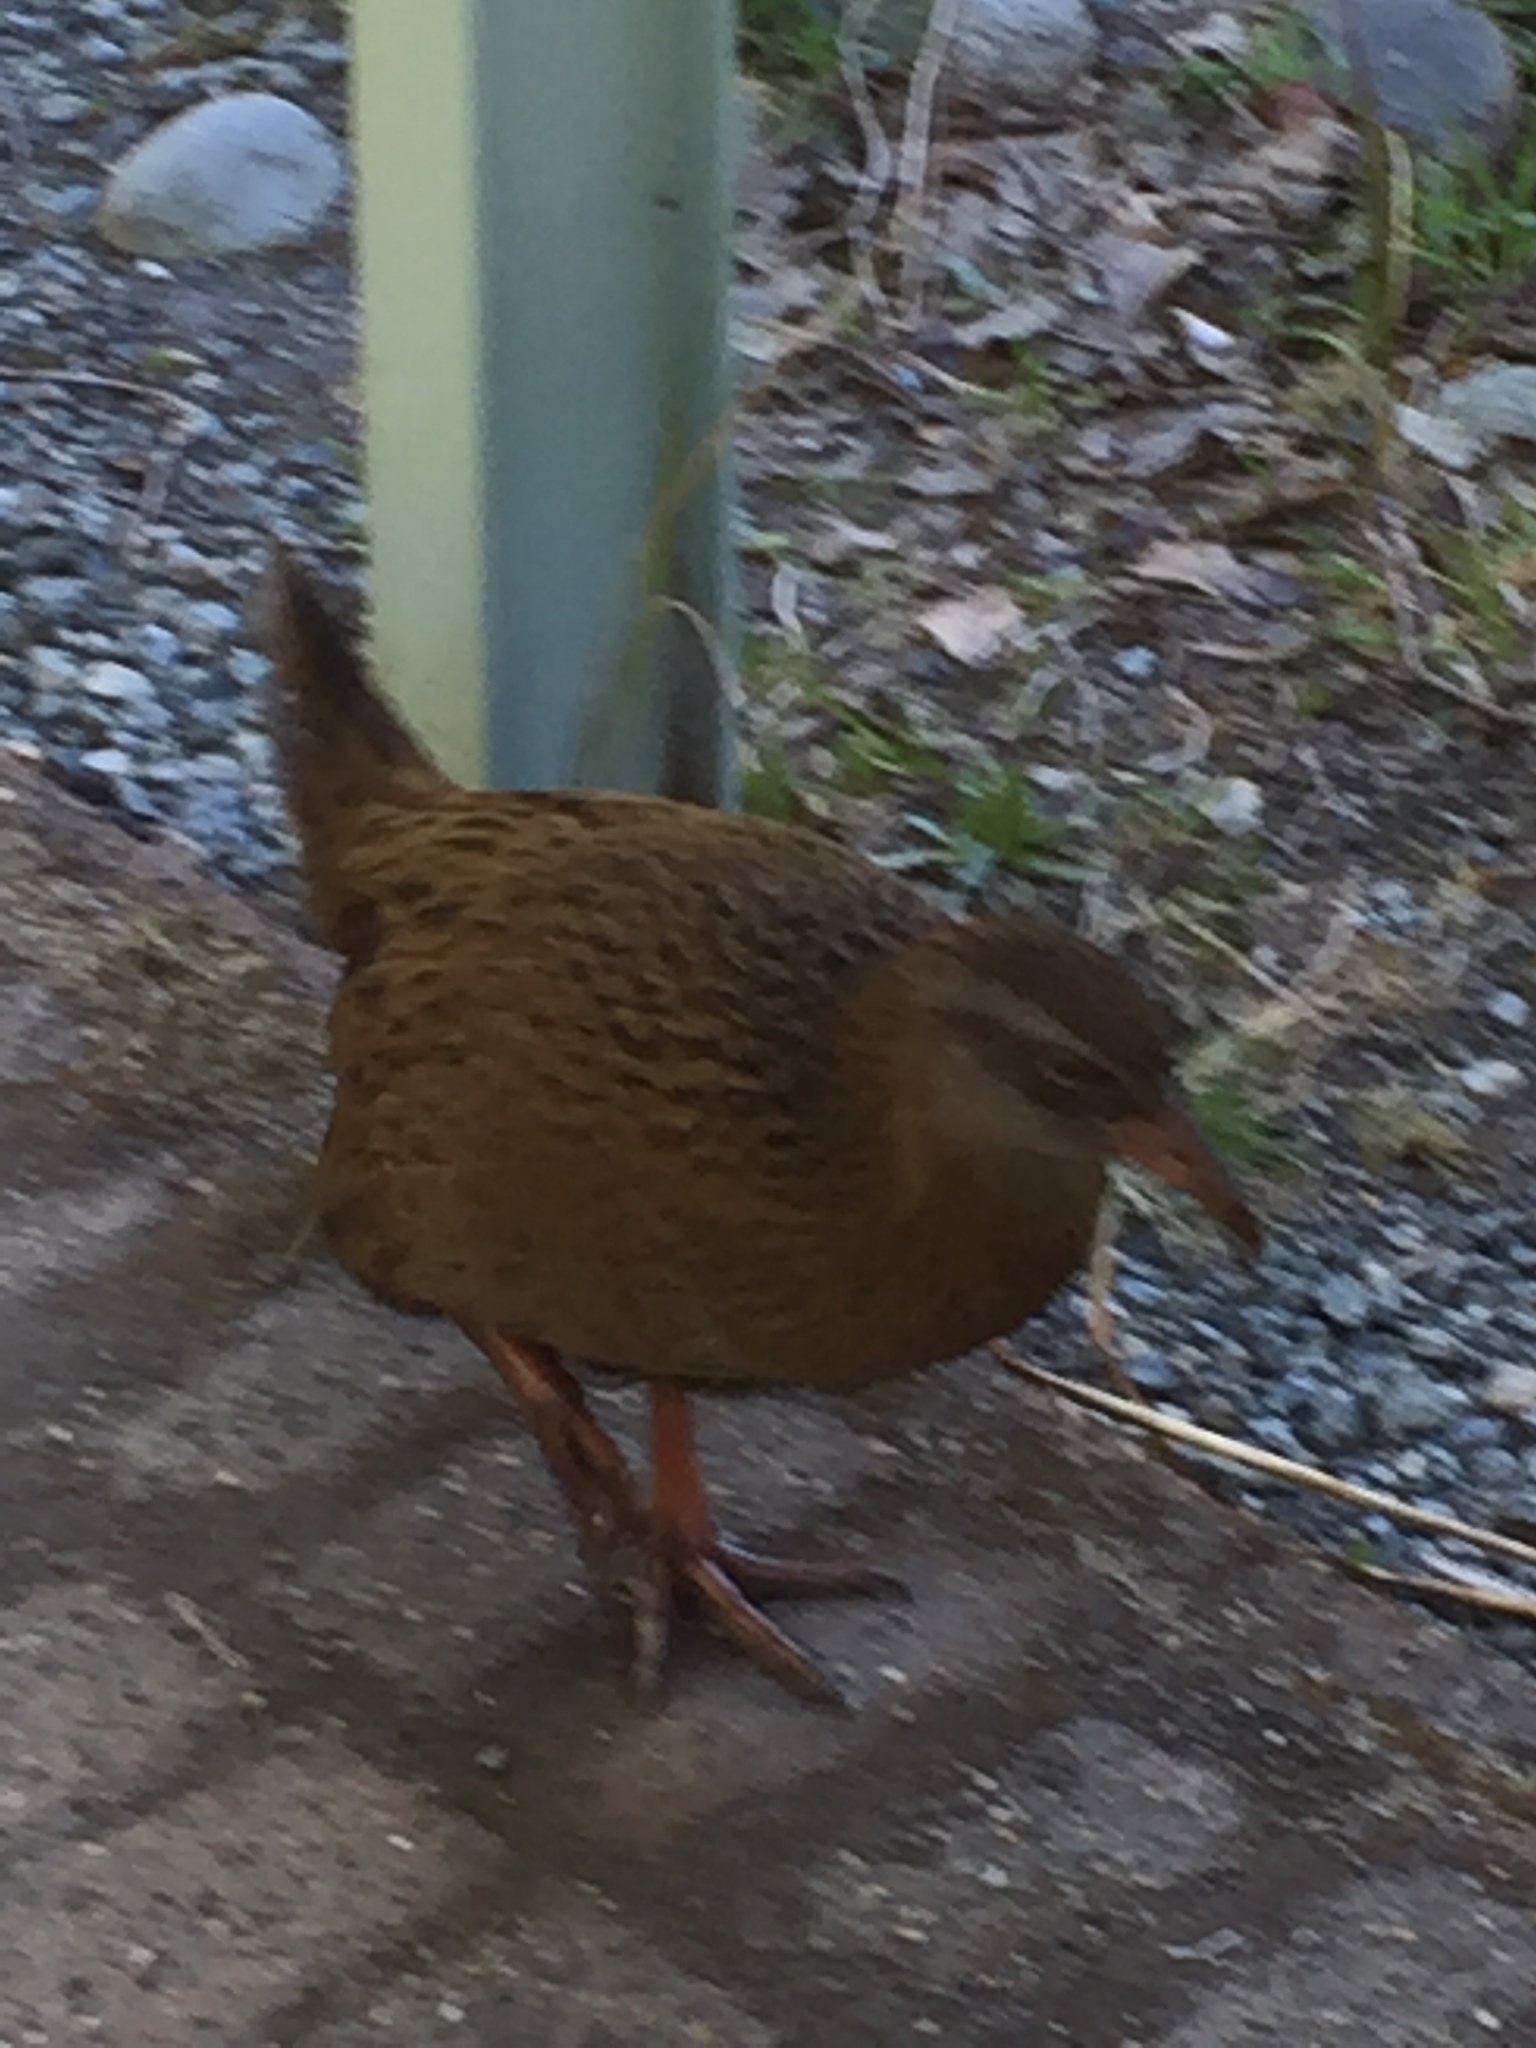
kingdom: Animalia
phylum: Chordata
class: Aves
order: Gruiformes
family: Rallidae
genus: Gallirallus
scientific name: Gallirallus australis
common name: Weka
